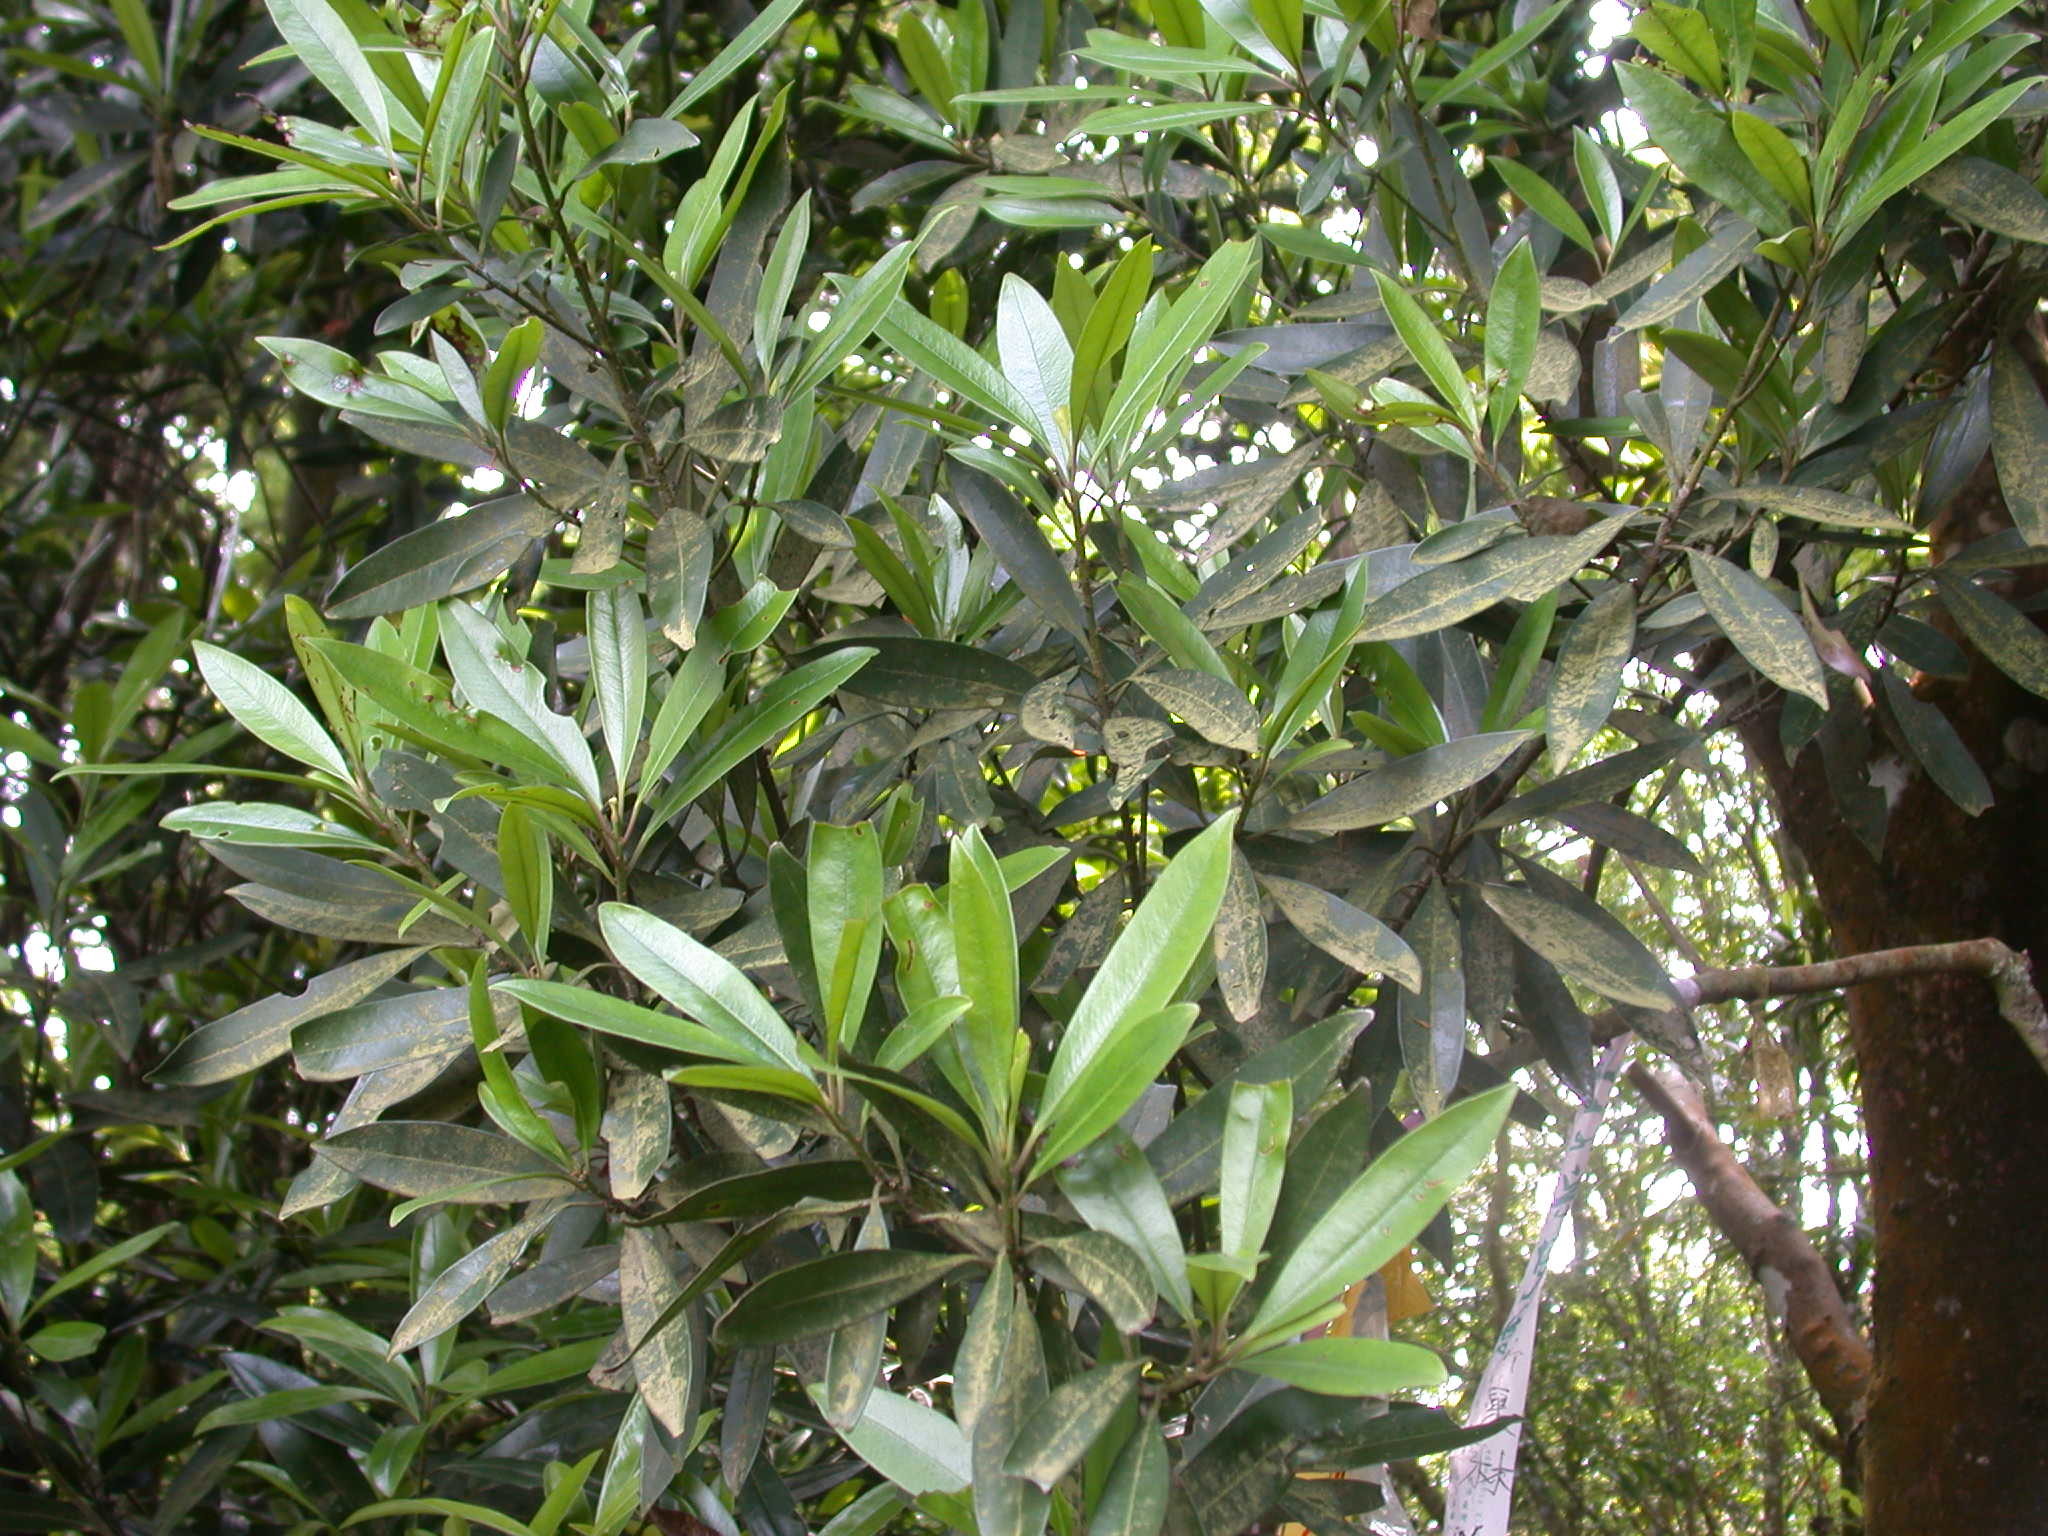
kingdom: Plantae
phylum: Tracheophyta
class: Magnoliopsida
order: Ericales
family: Primulaceae
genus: Myrsine
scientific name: Myrsine seguinii
